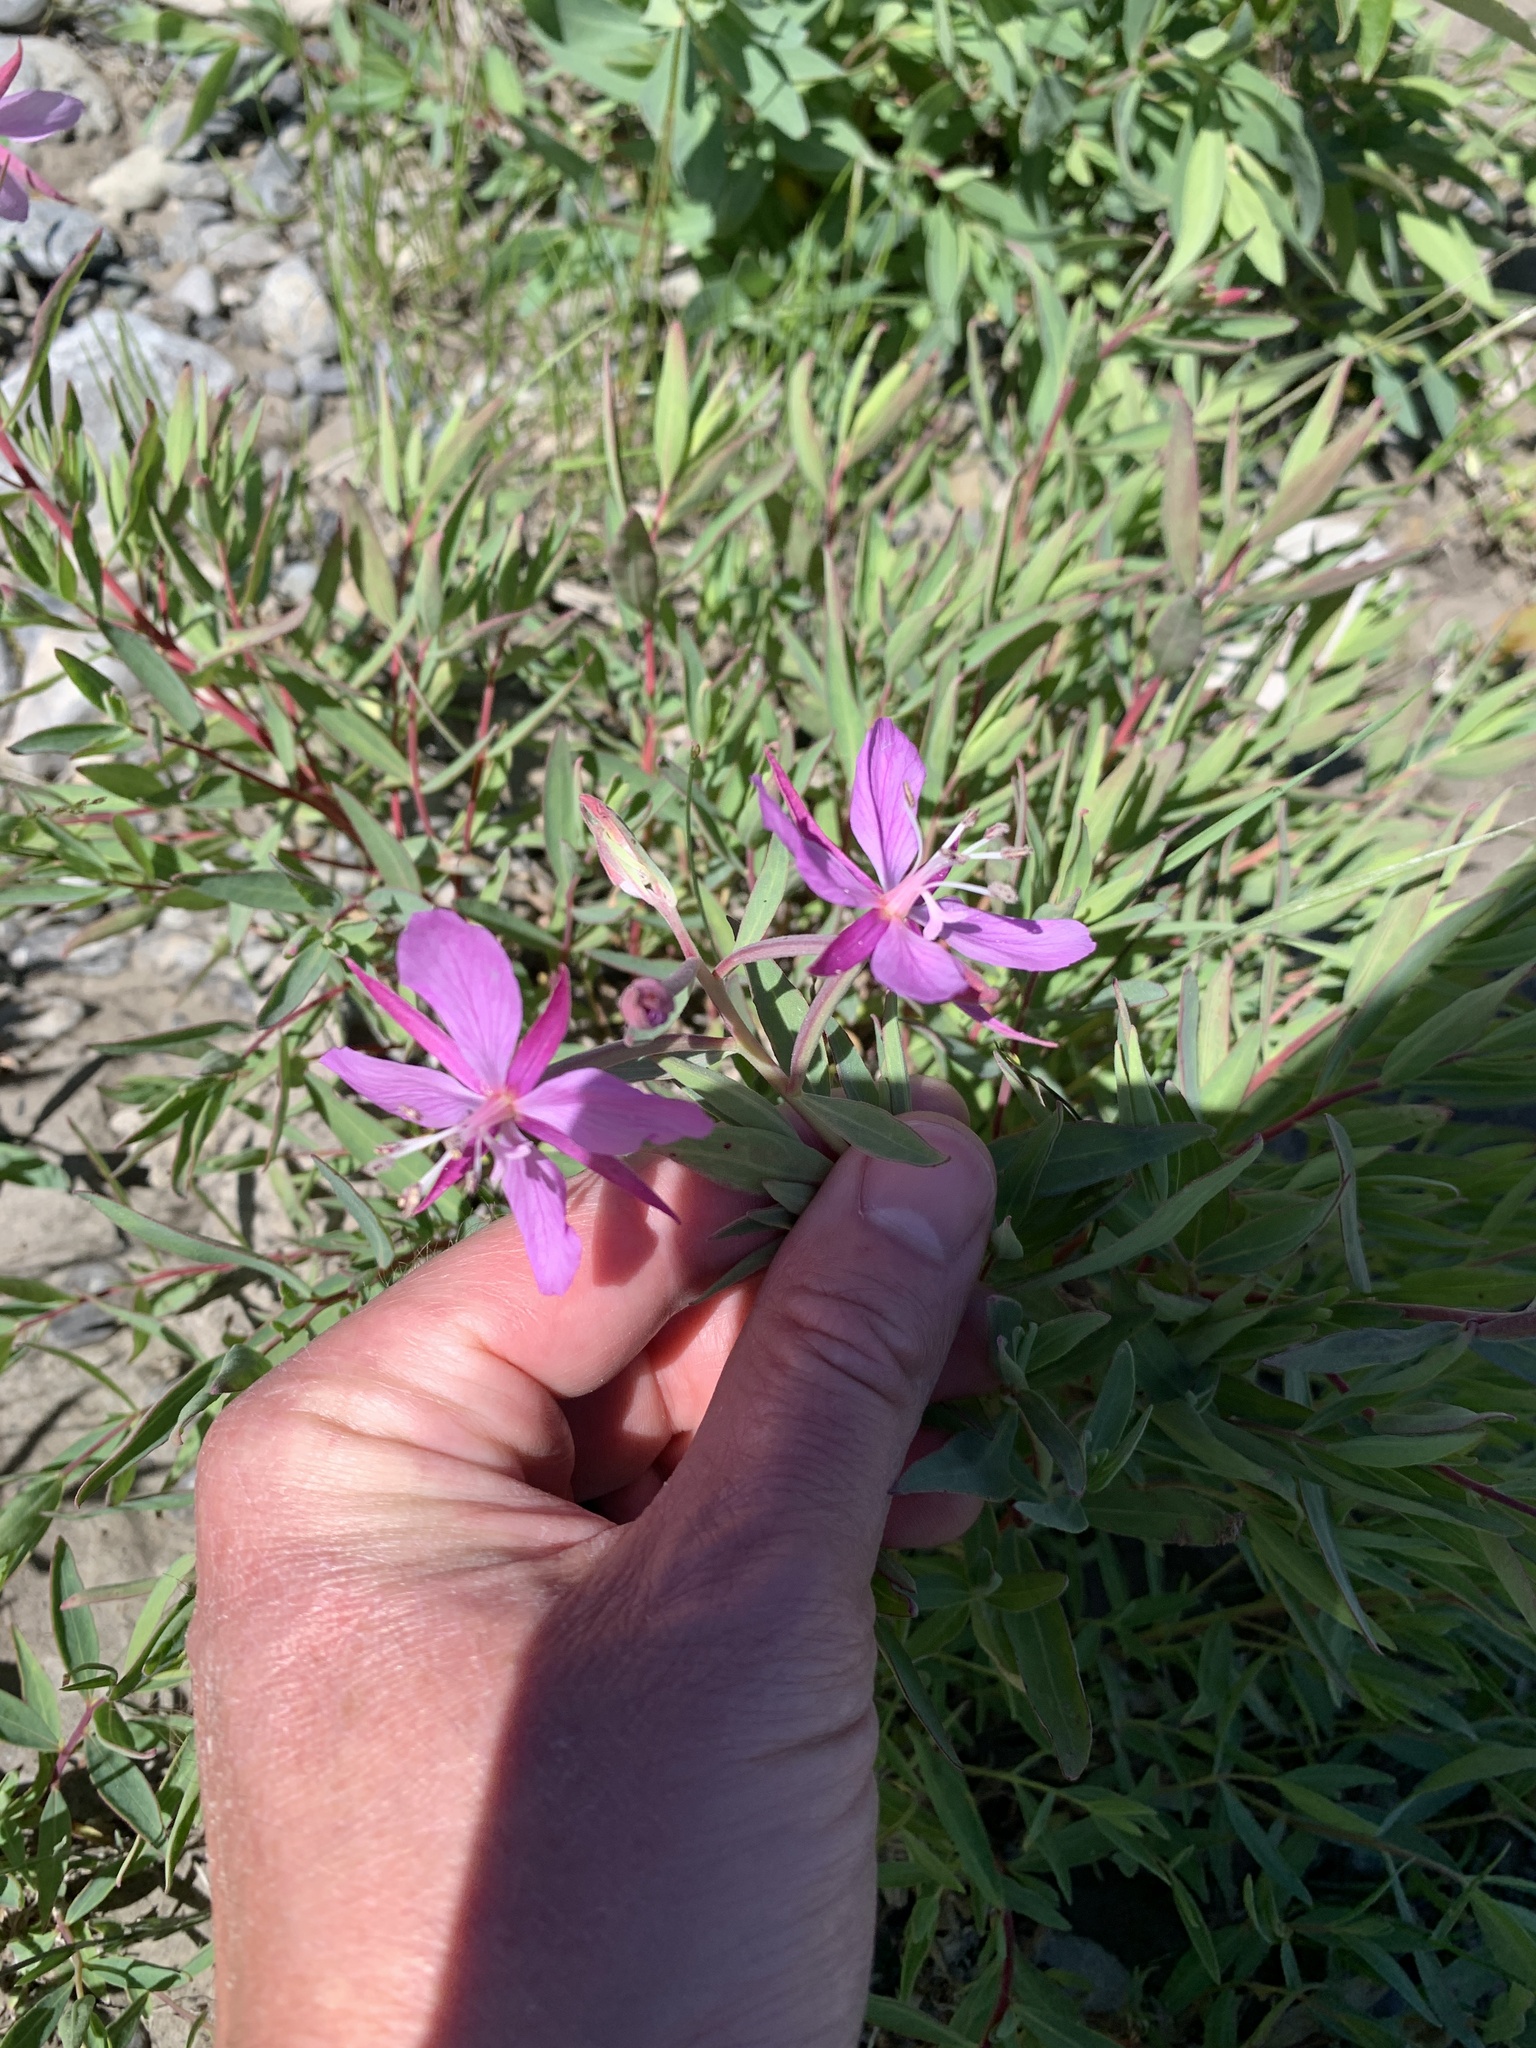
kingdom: Plantae
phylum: Tracheophyta
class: Magnoliopsida
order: Myrtales
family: Onagraceae
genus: Chamaenerion
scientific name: Chamaenerion latifolium
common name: Dwarf fireweed
